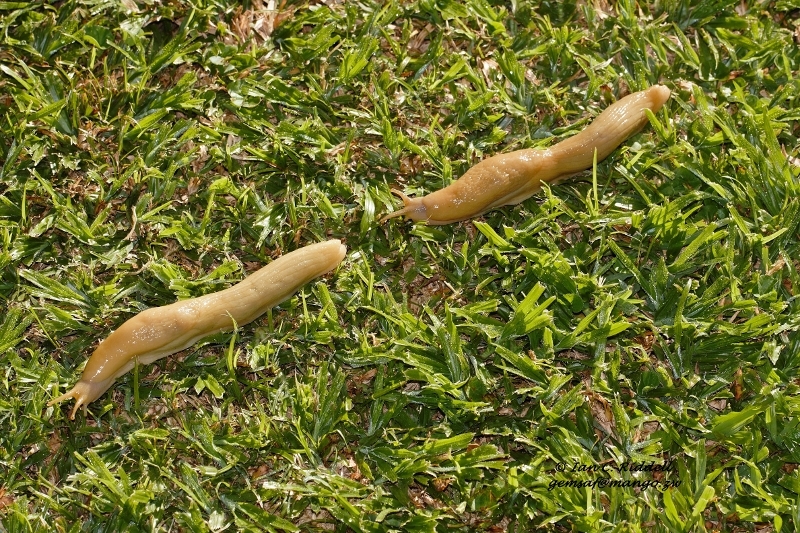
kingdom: Animalia
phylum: Mollusca
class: Gastropoda
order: Stylommatophora
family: Urocyclidae
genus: Polytoxon
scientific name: Polytoxon robustum
